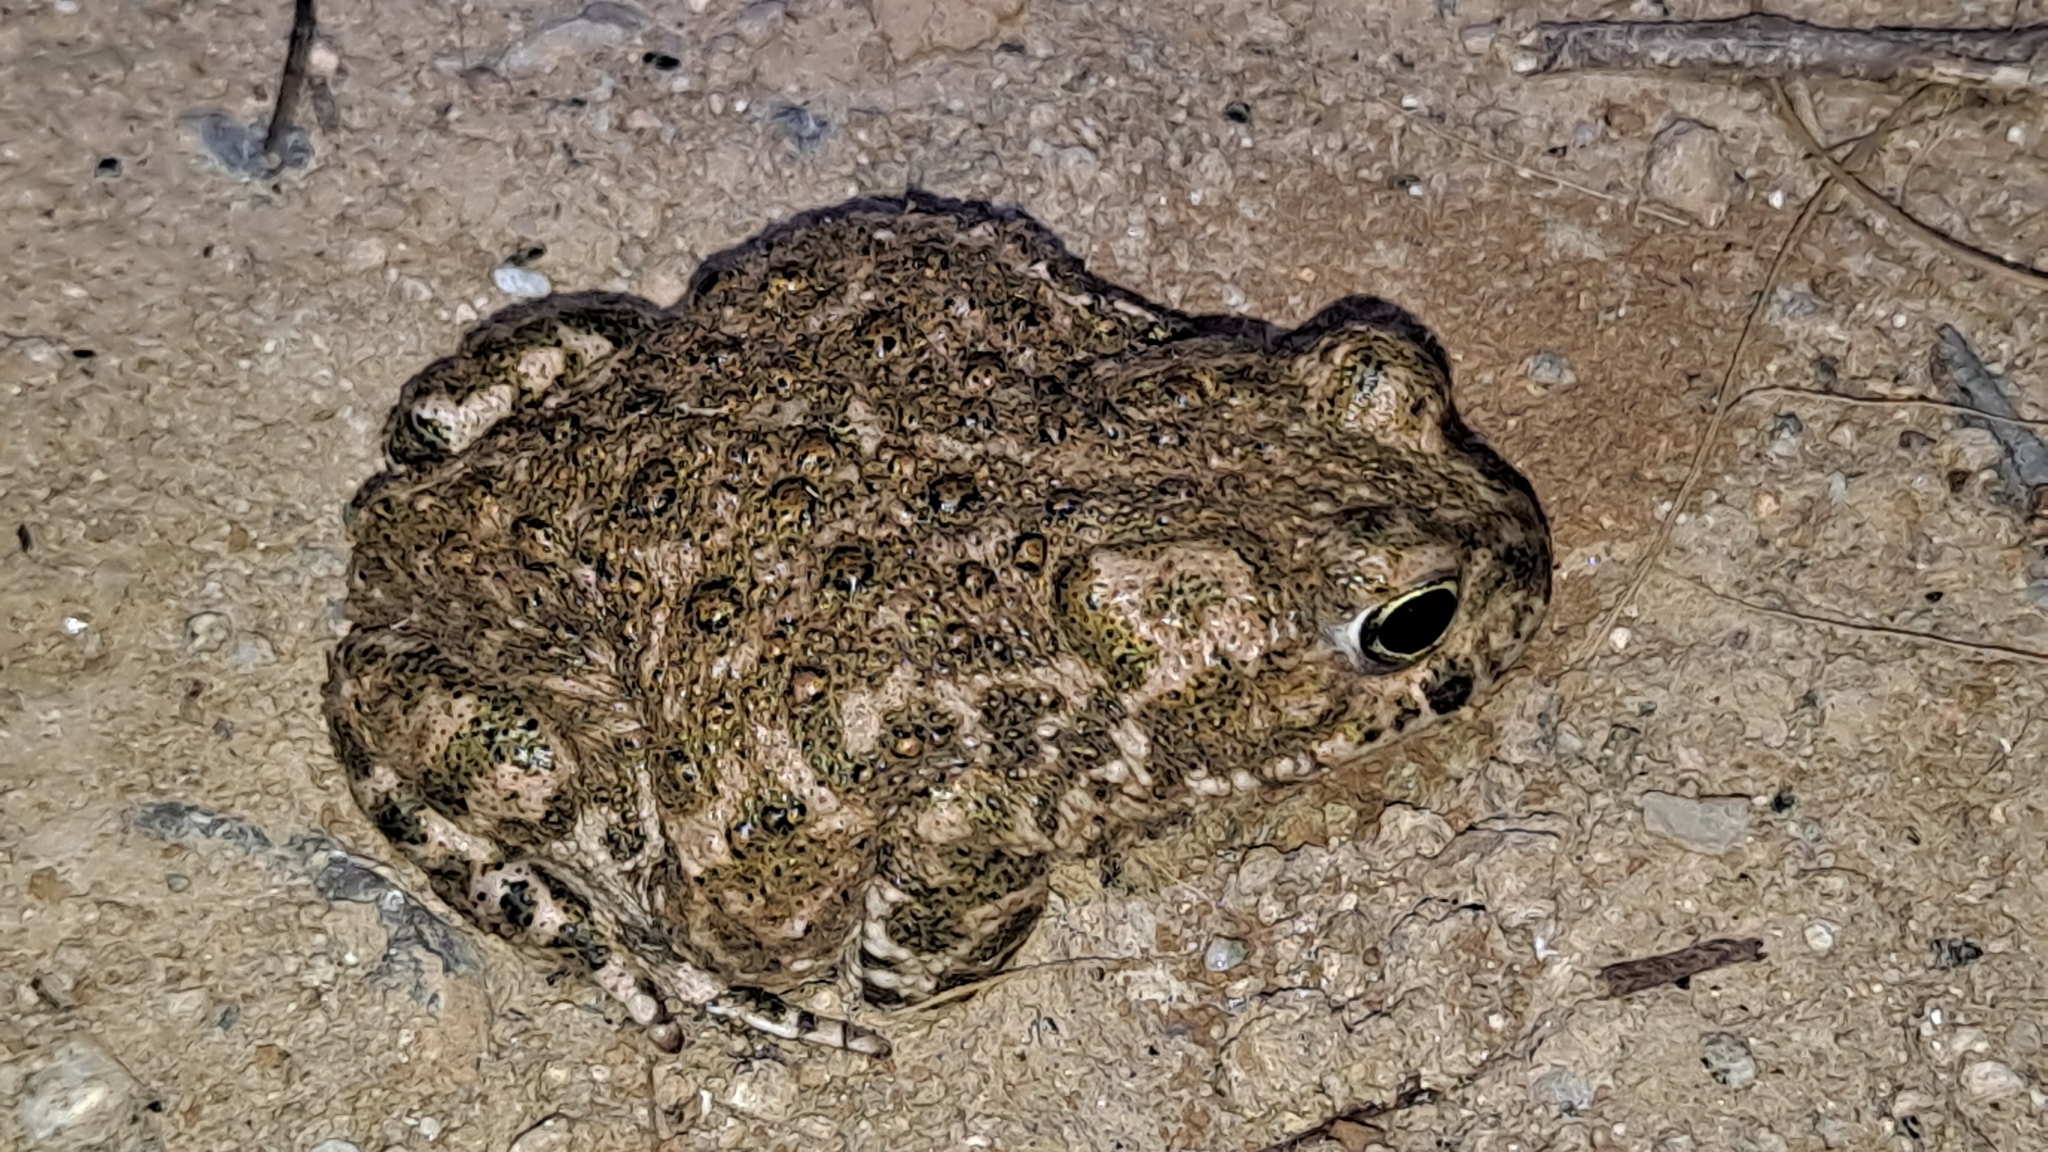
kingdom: Animalia
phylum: Chordata
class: Amphibia
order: Anura
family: Bufonidae
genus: Epidalea
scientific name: Epidalea calamita
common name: Natterjack toad
